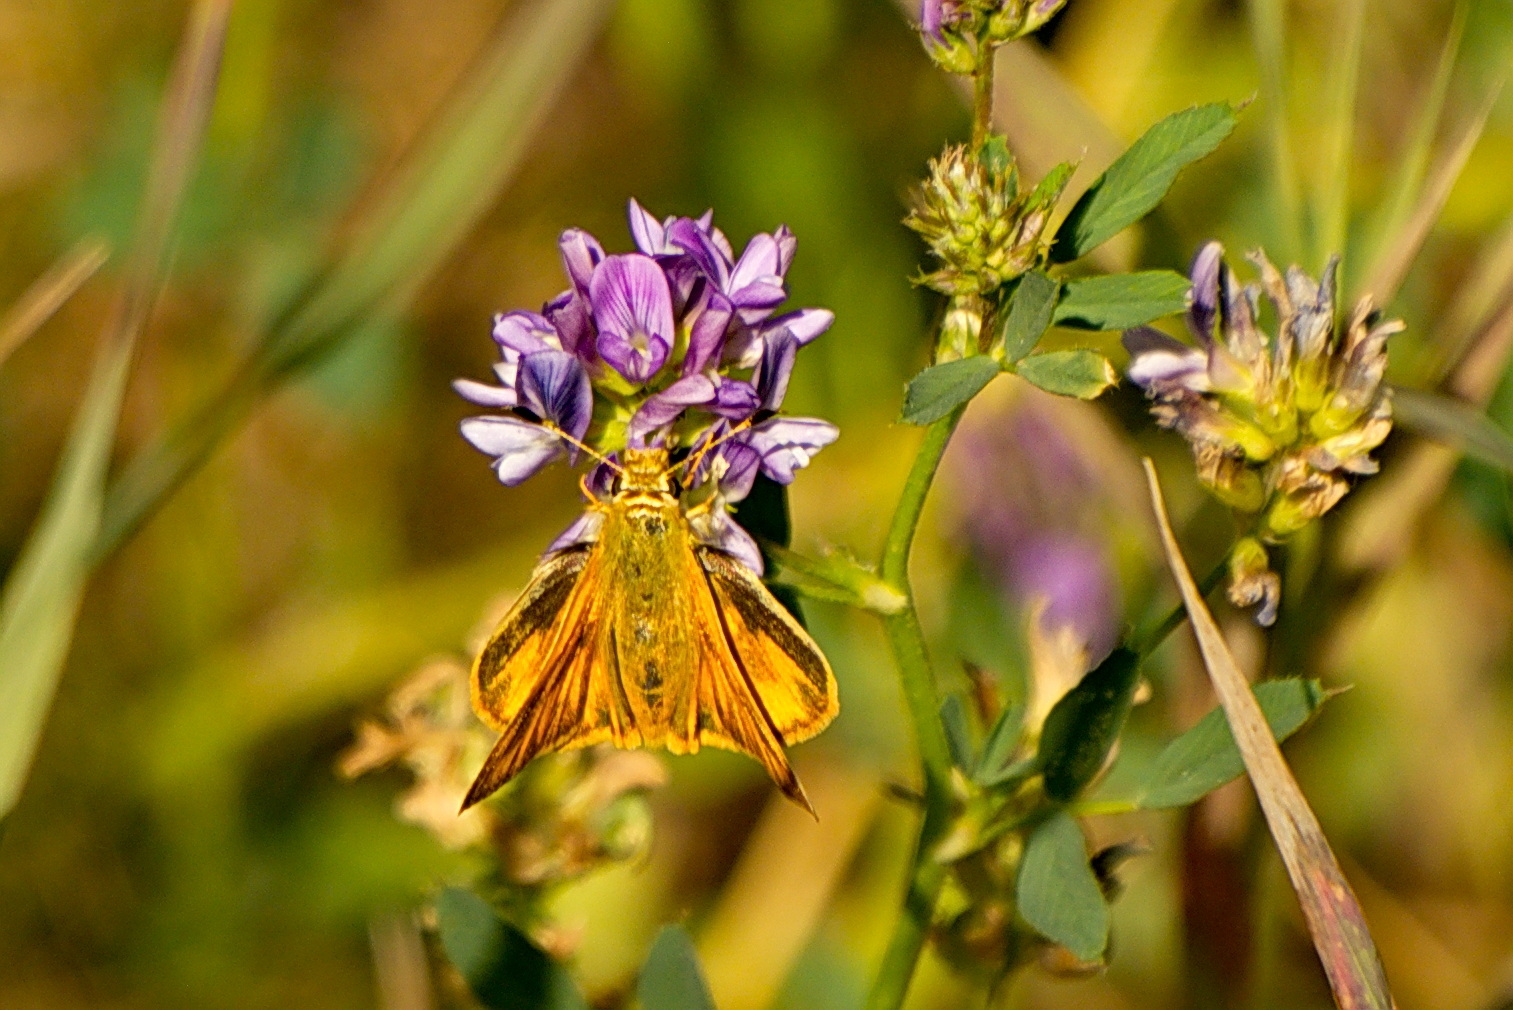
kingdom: Animalia
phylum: Arthropoda
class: Insecta
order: Lepidoptera
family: Hesperiidae
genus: Ochlodes
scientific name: Ochlodes sylvanoides
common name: Woodland skipper
